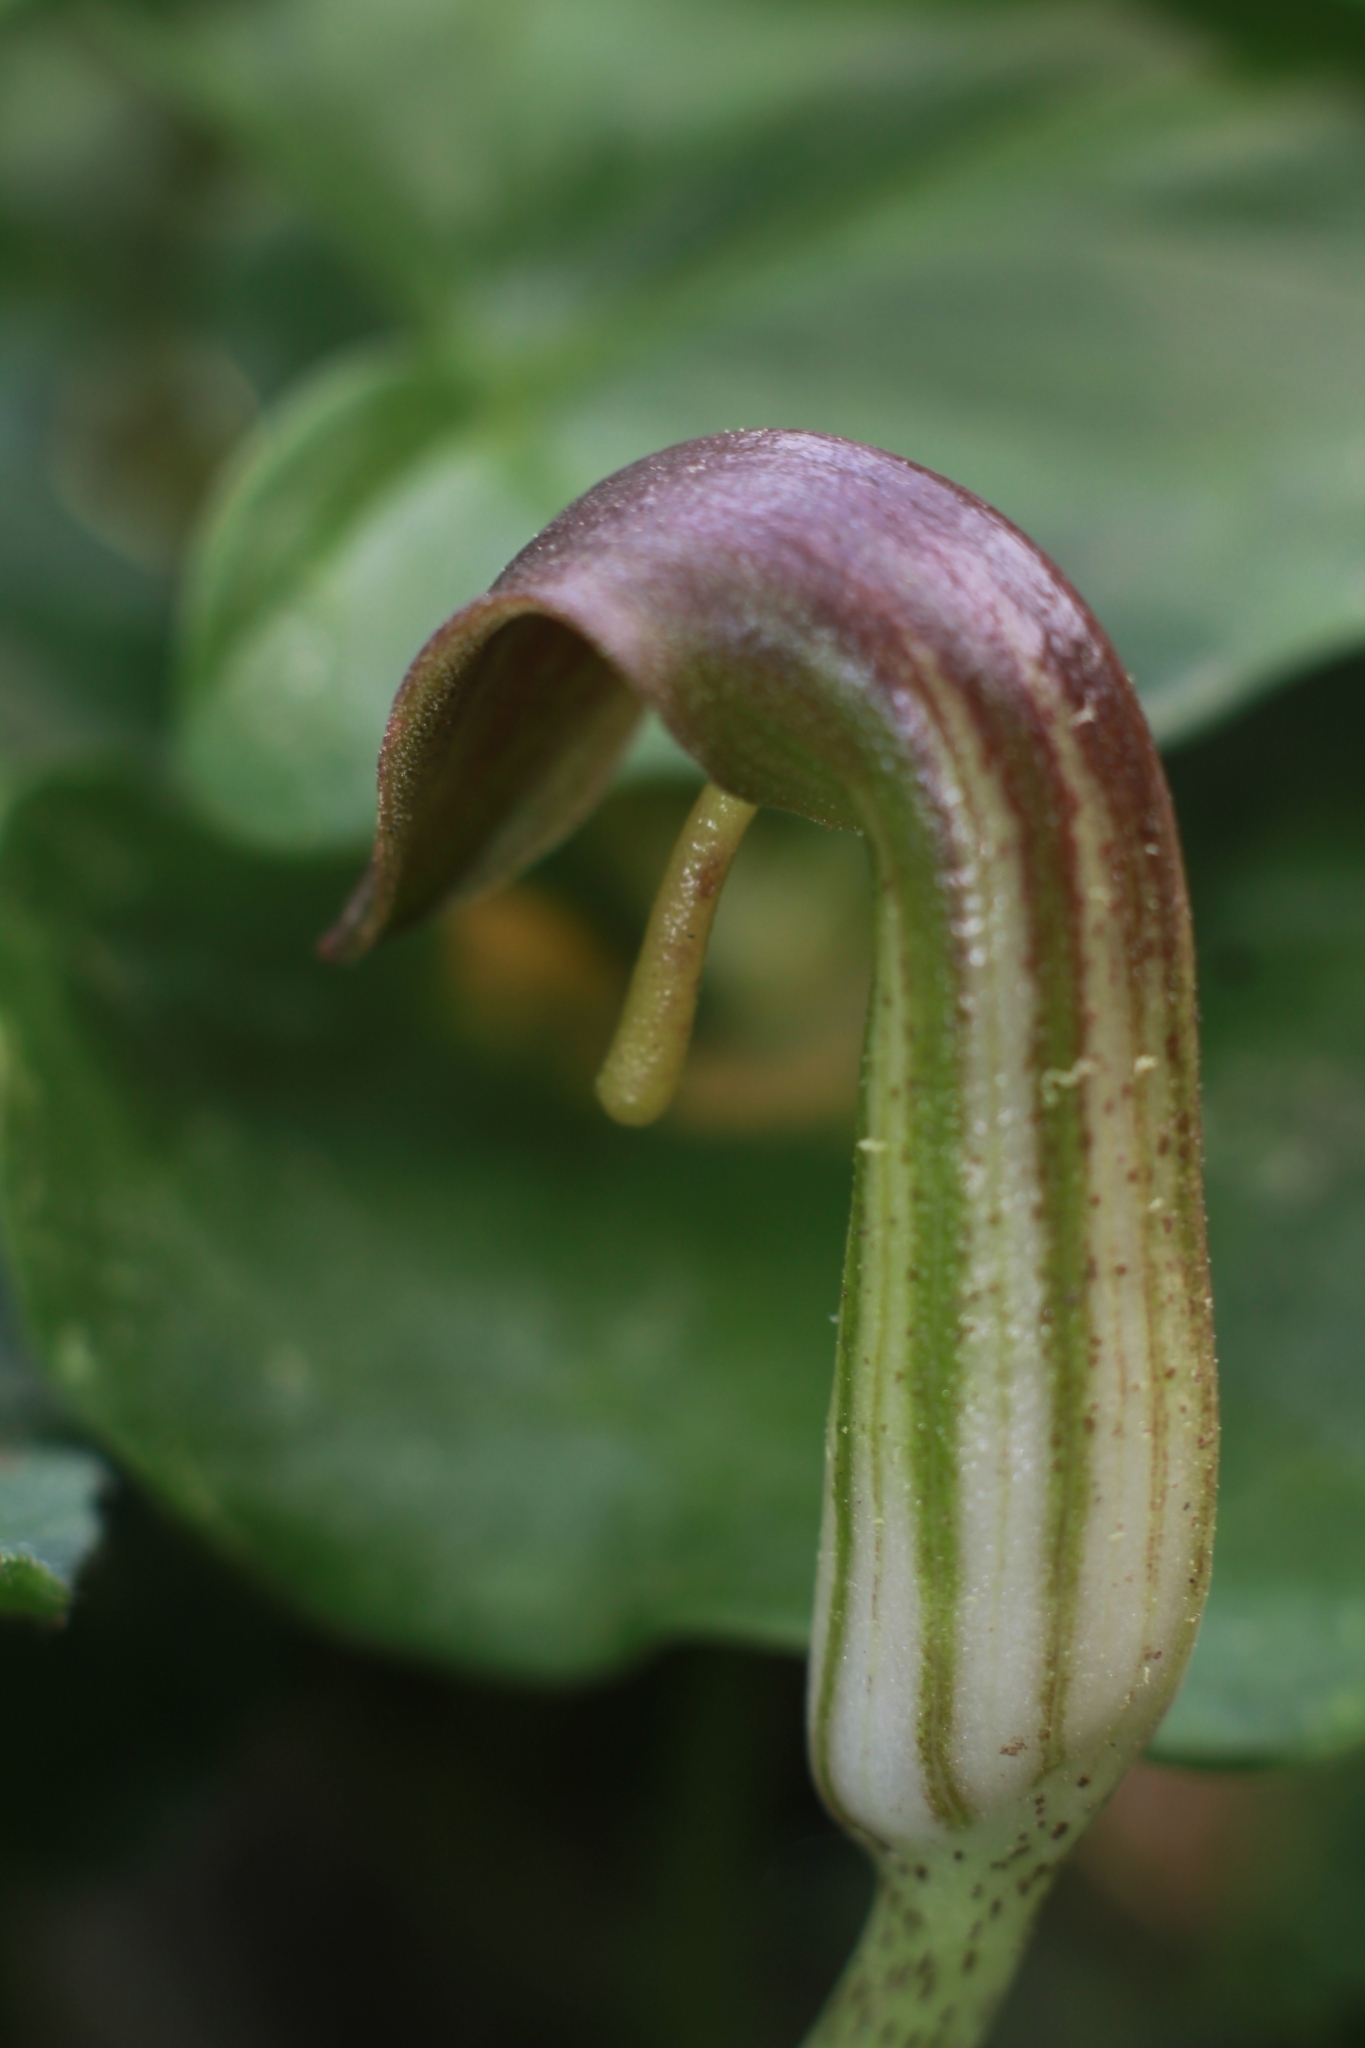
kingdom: Plantae
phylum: Tracheophyta
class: Liliopsida
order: Alismatales
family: Araceae
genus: Arisarum
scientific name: Arisarum vulgare
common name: Common arisarum
